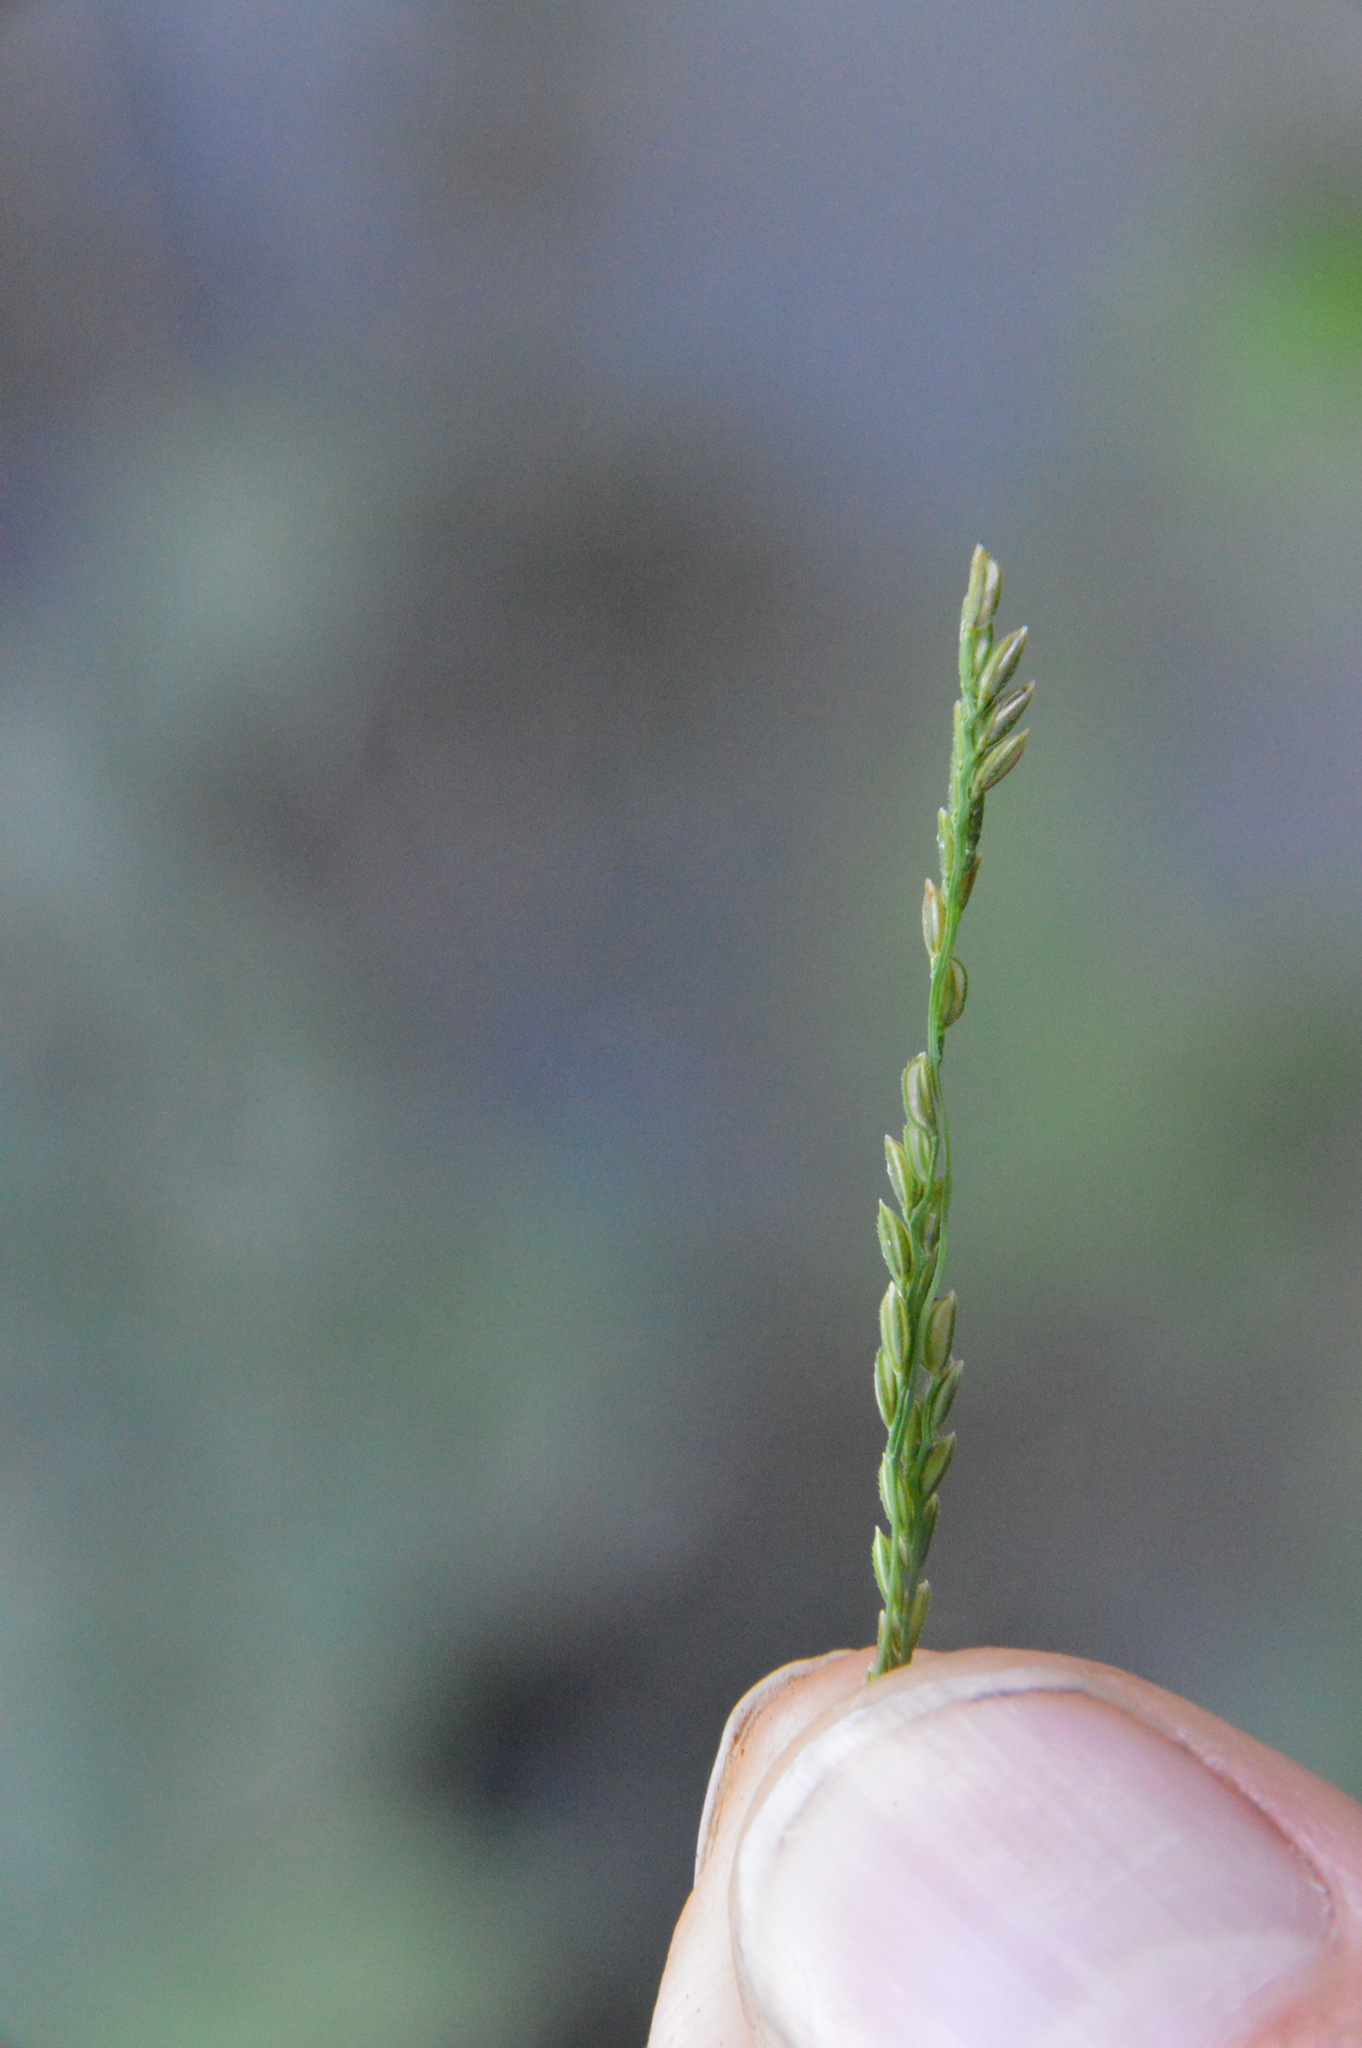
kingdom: Plantae
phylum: Tracheophyta
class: Liliopsida
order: Poales
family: Poaceae
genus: Leersia
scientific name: Leersia virginica
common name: White cutgrass
